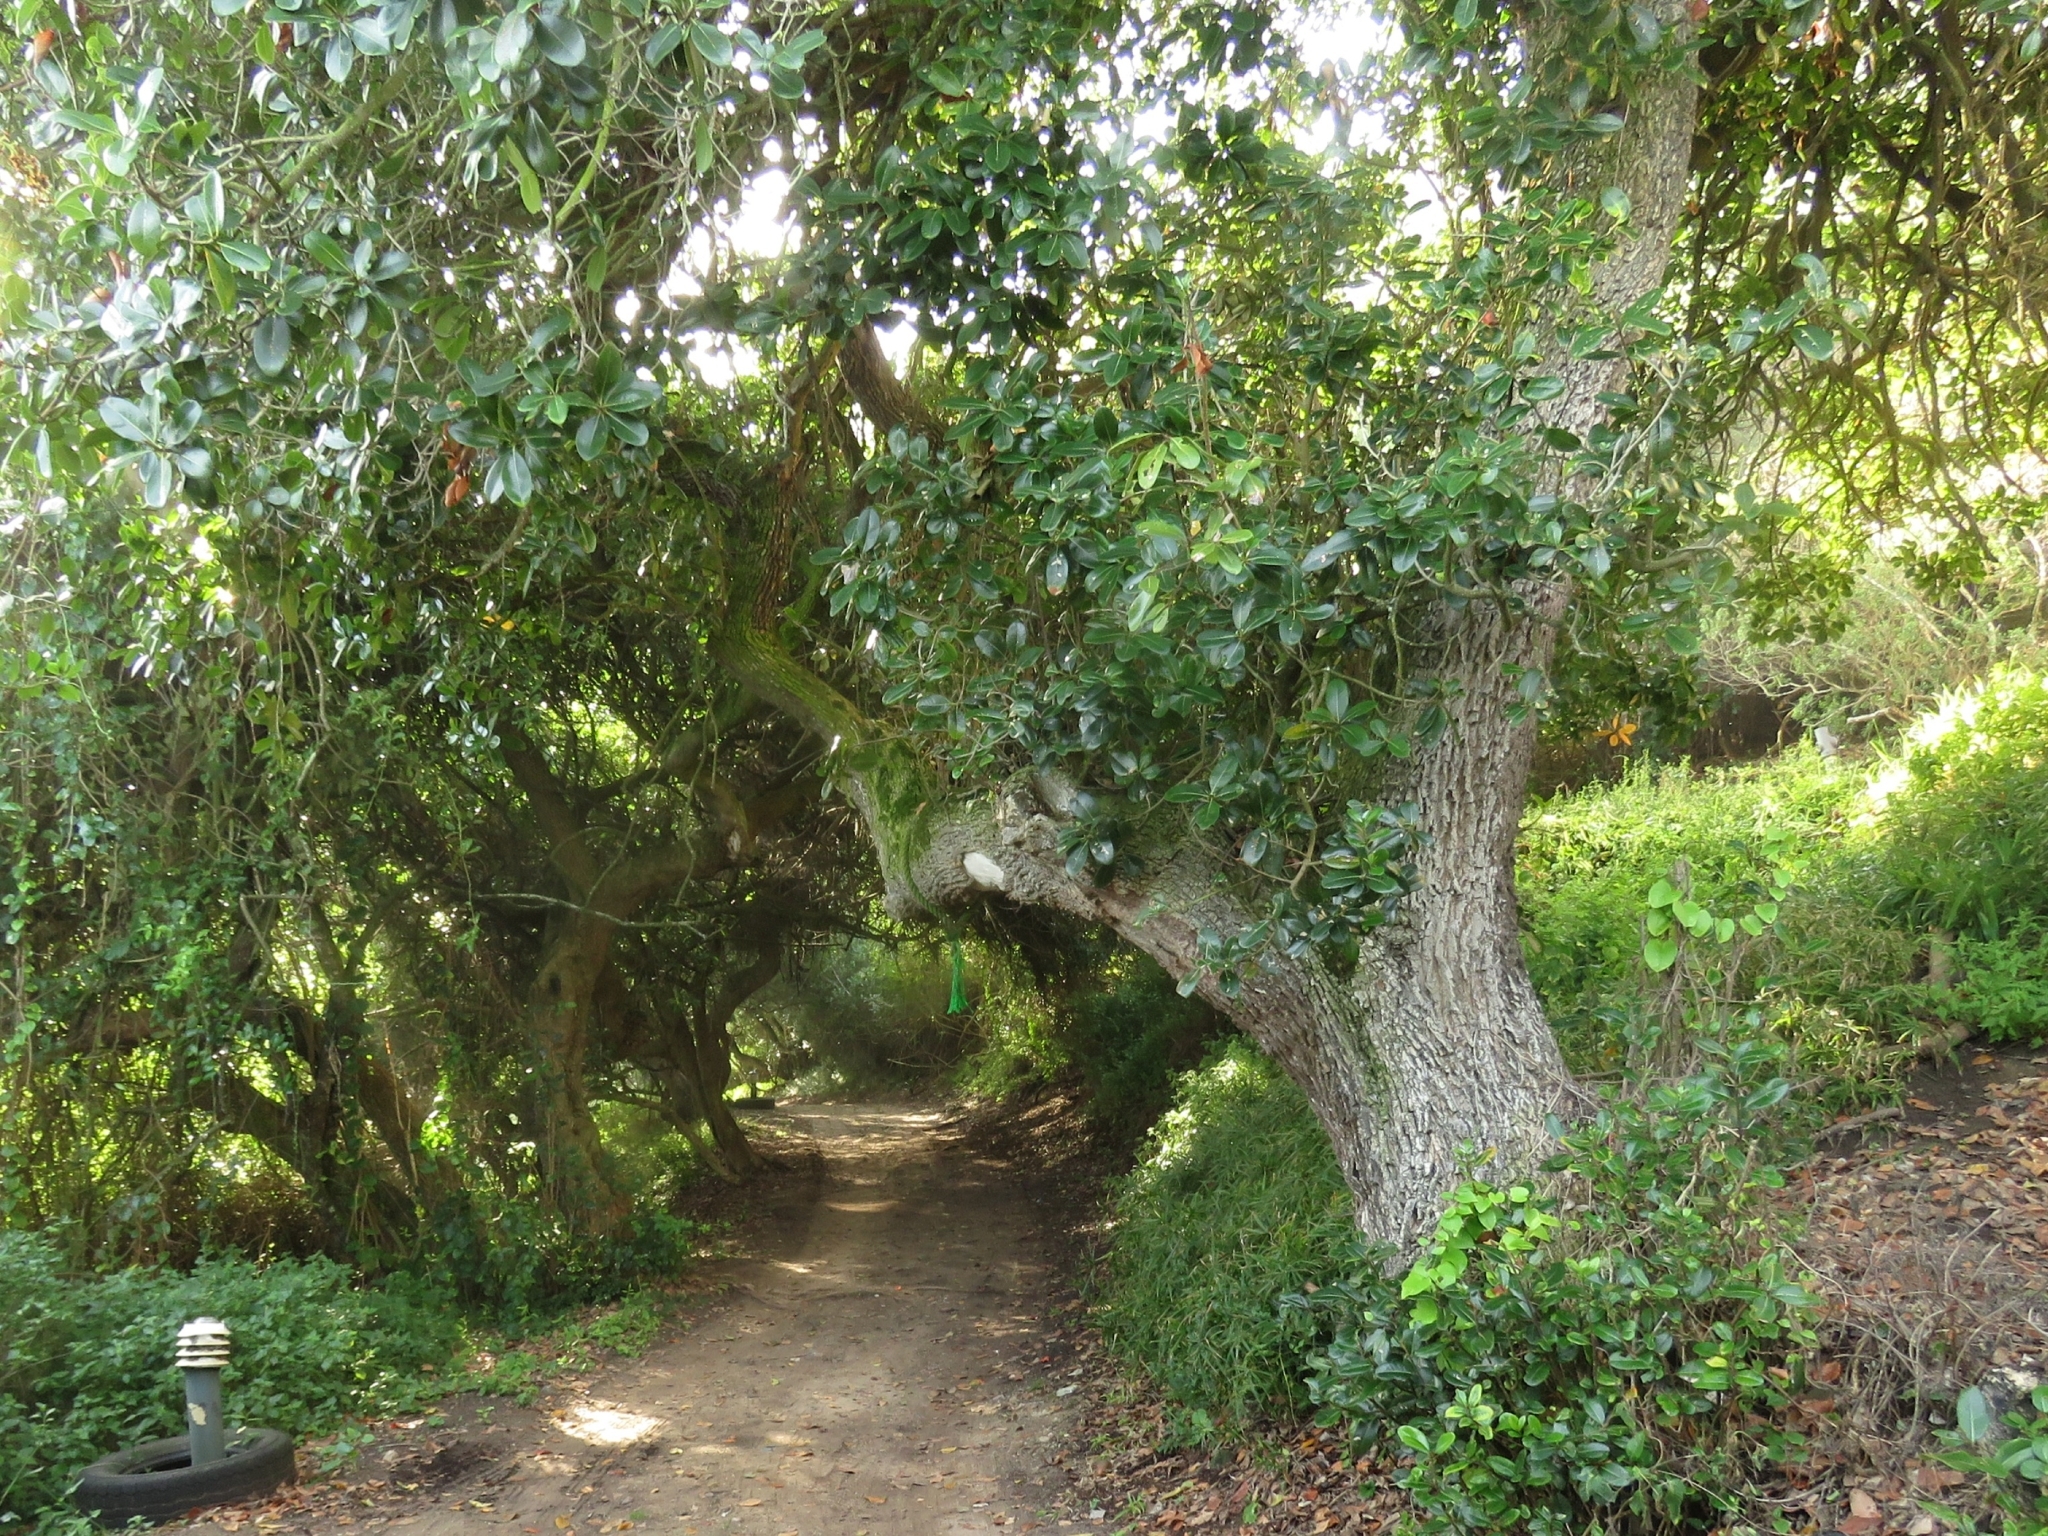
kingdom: Plantae
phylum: Tracheophyta
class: Magnoliopsida
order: Ericales
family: Sapotaceae
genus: Sideroxylon
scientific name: Sideroxylon inerme
